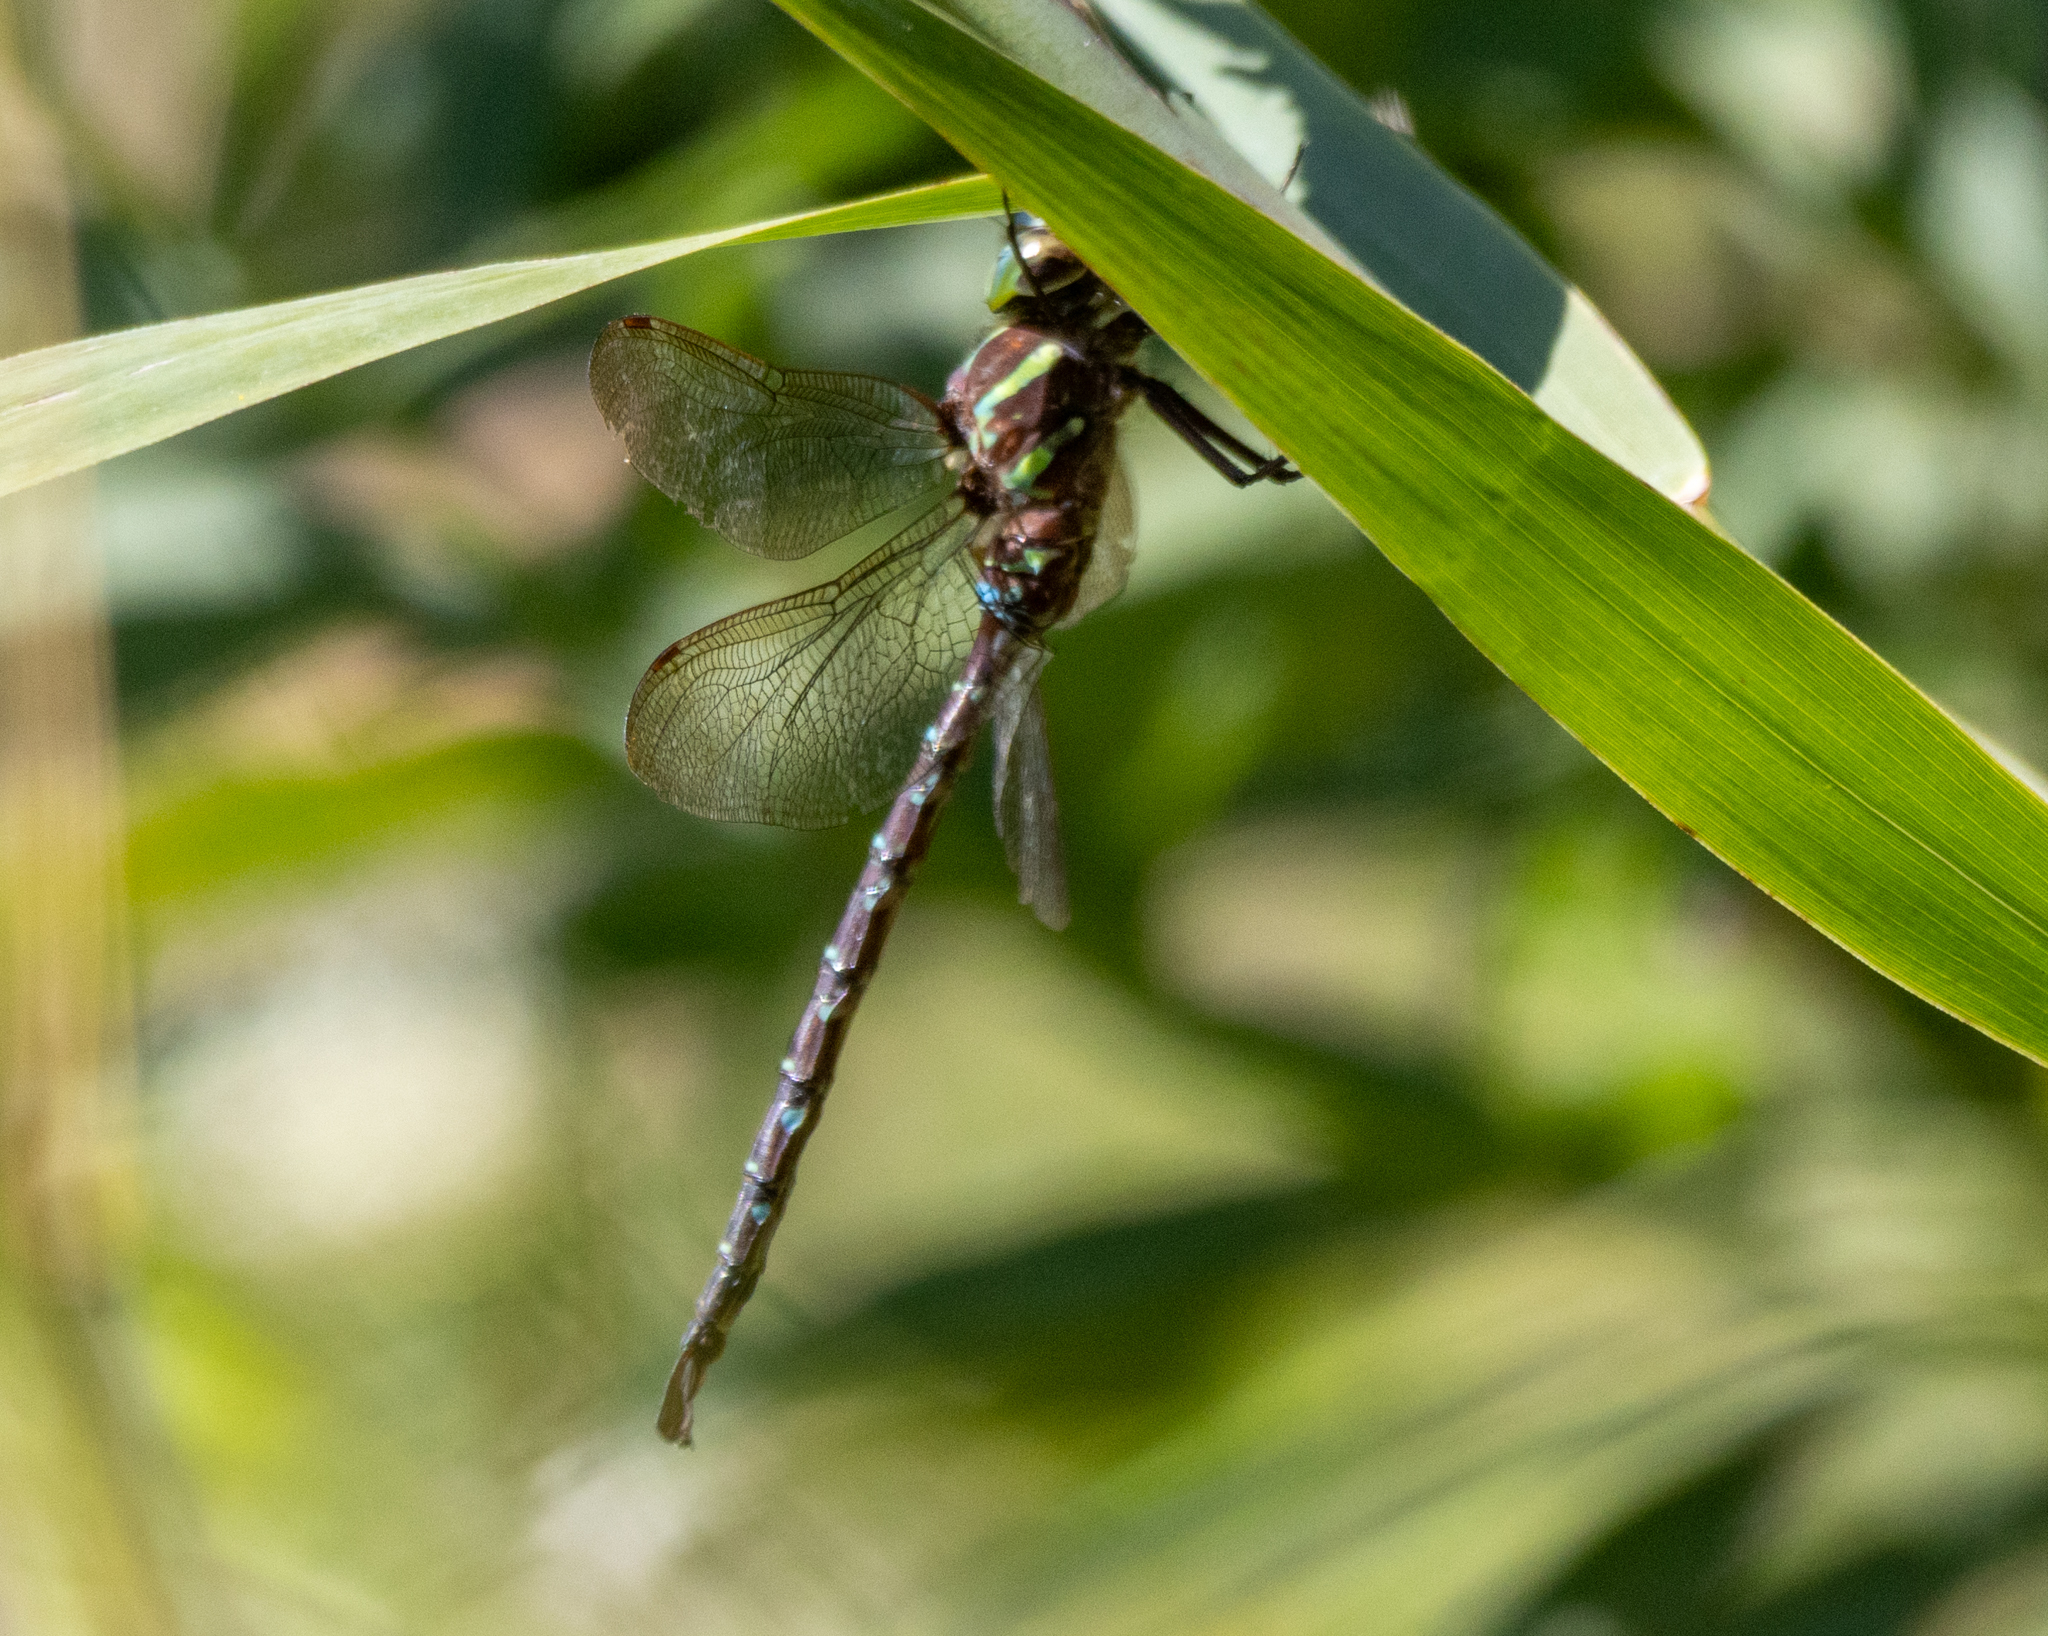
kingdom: Animalia
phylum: Arthropoda
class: Insecta
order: Odonata
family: Aeshnidae
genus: Aeshna
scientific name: Aeshna umbrosa
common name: Shadow darner
